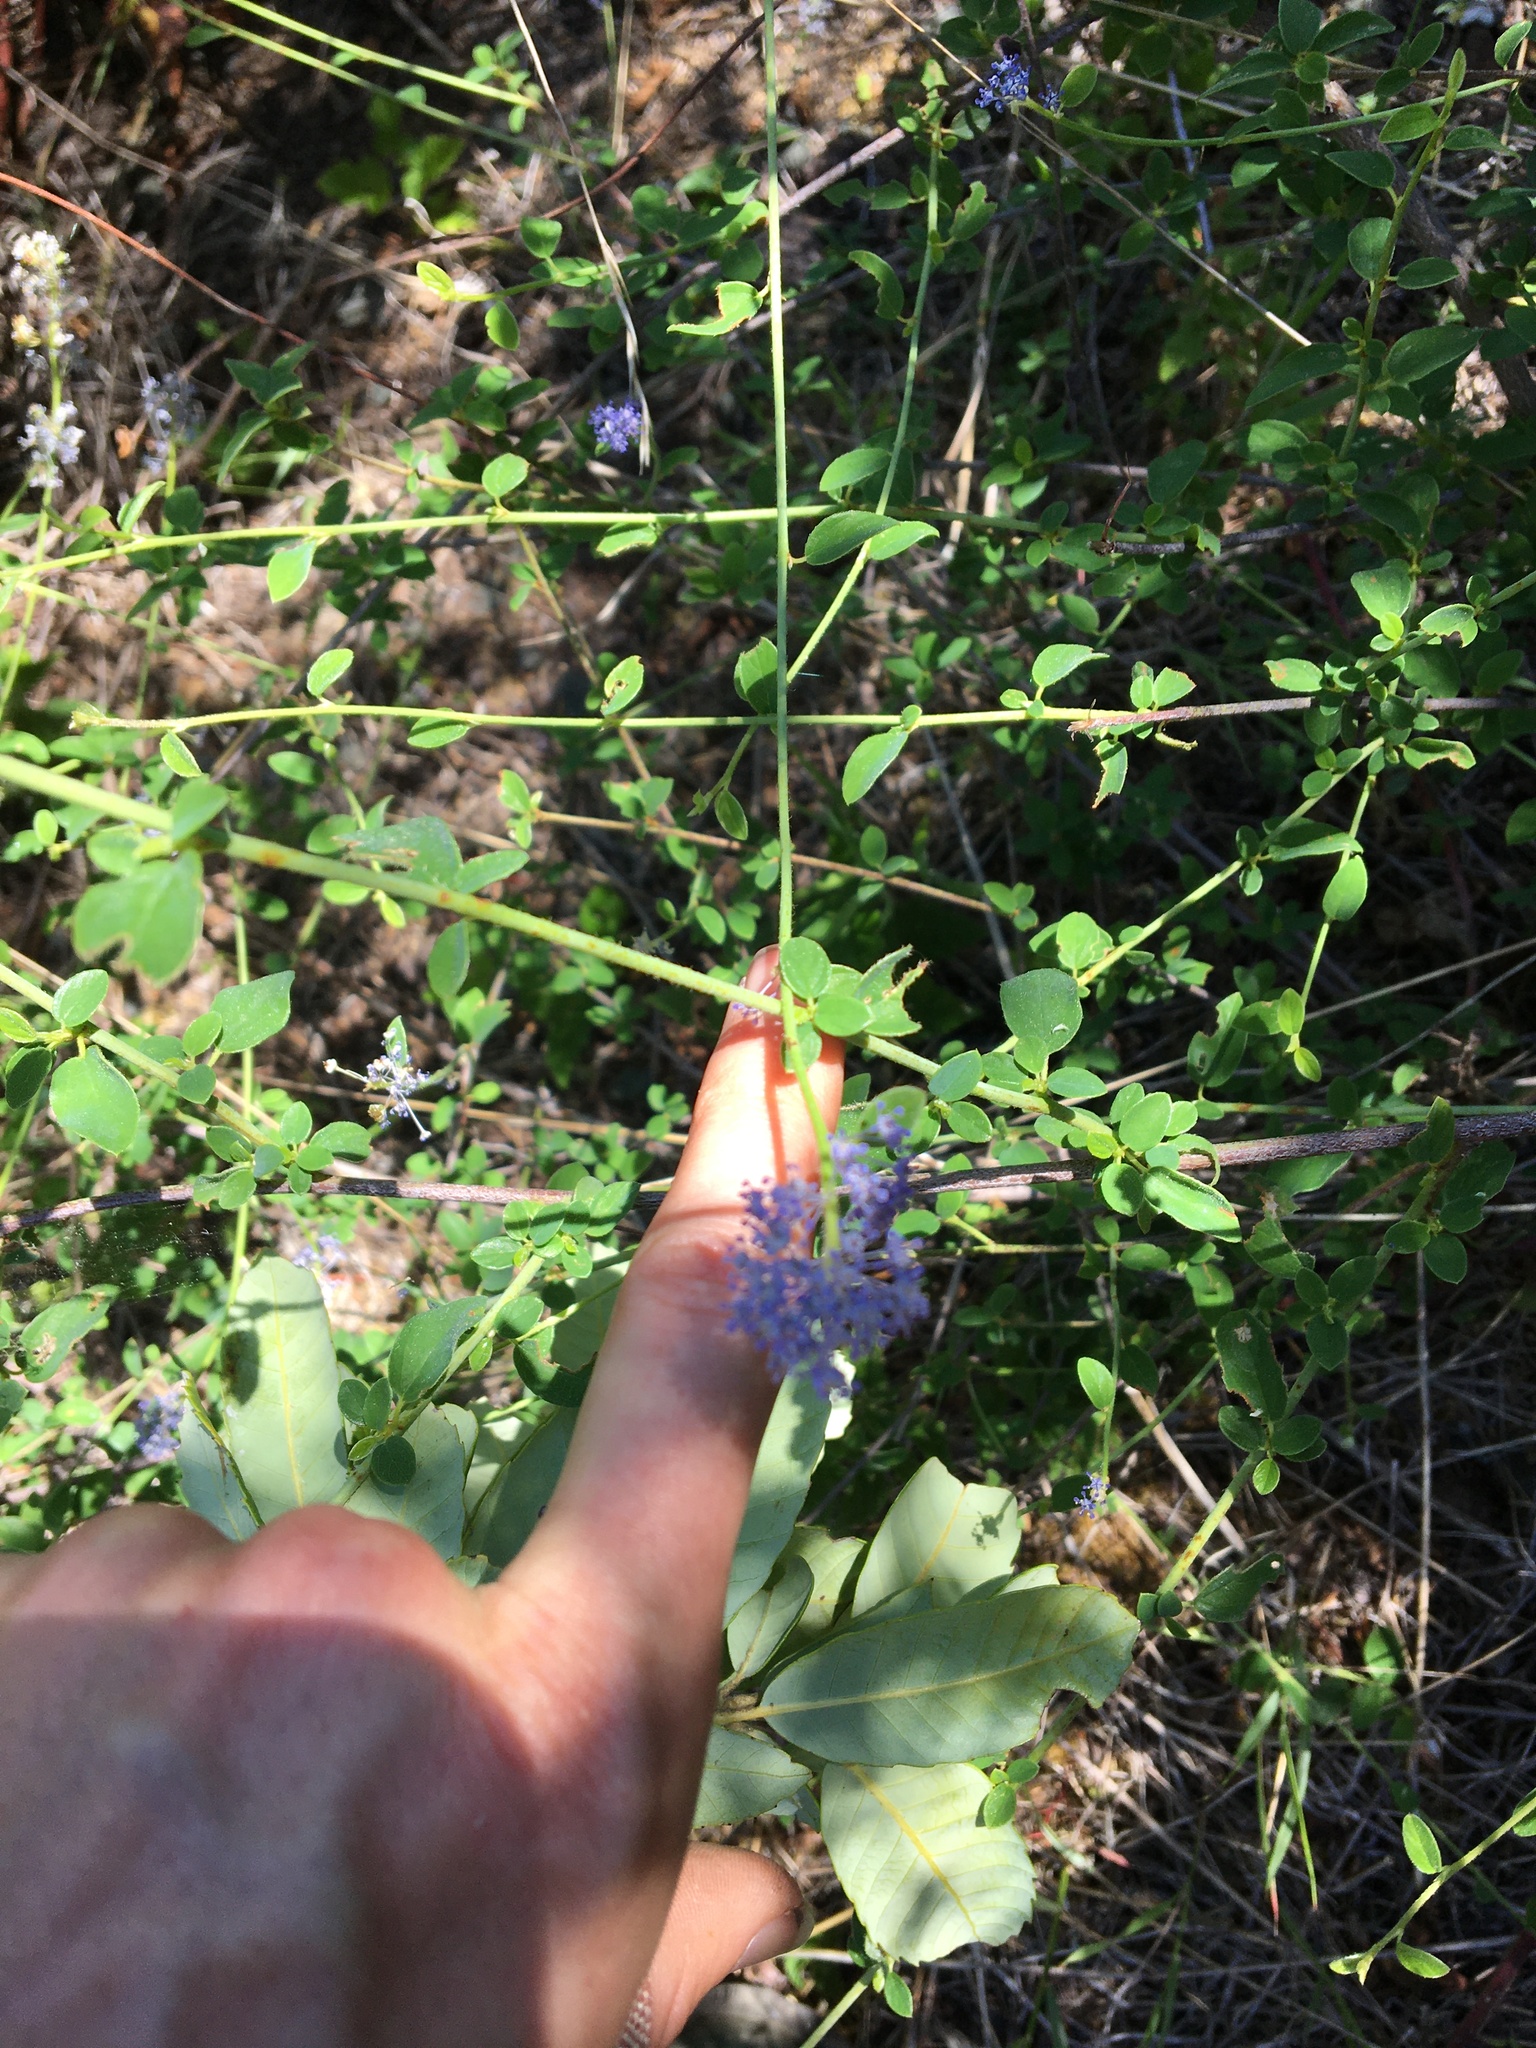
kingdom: Plantae
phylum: Tracheophyta
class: Magnoliopsida
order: Rosales
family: Rhamnaceae
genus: Ceanothus
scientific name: Ceanothus integerrimus
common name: Deerbrush ceanothus
